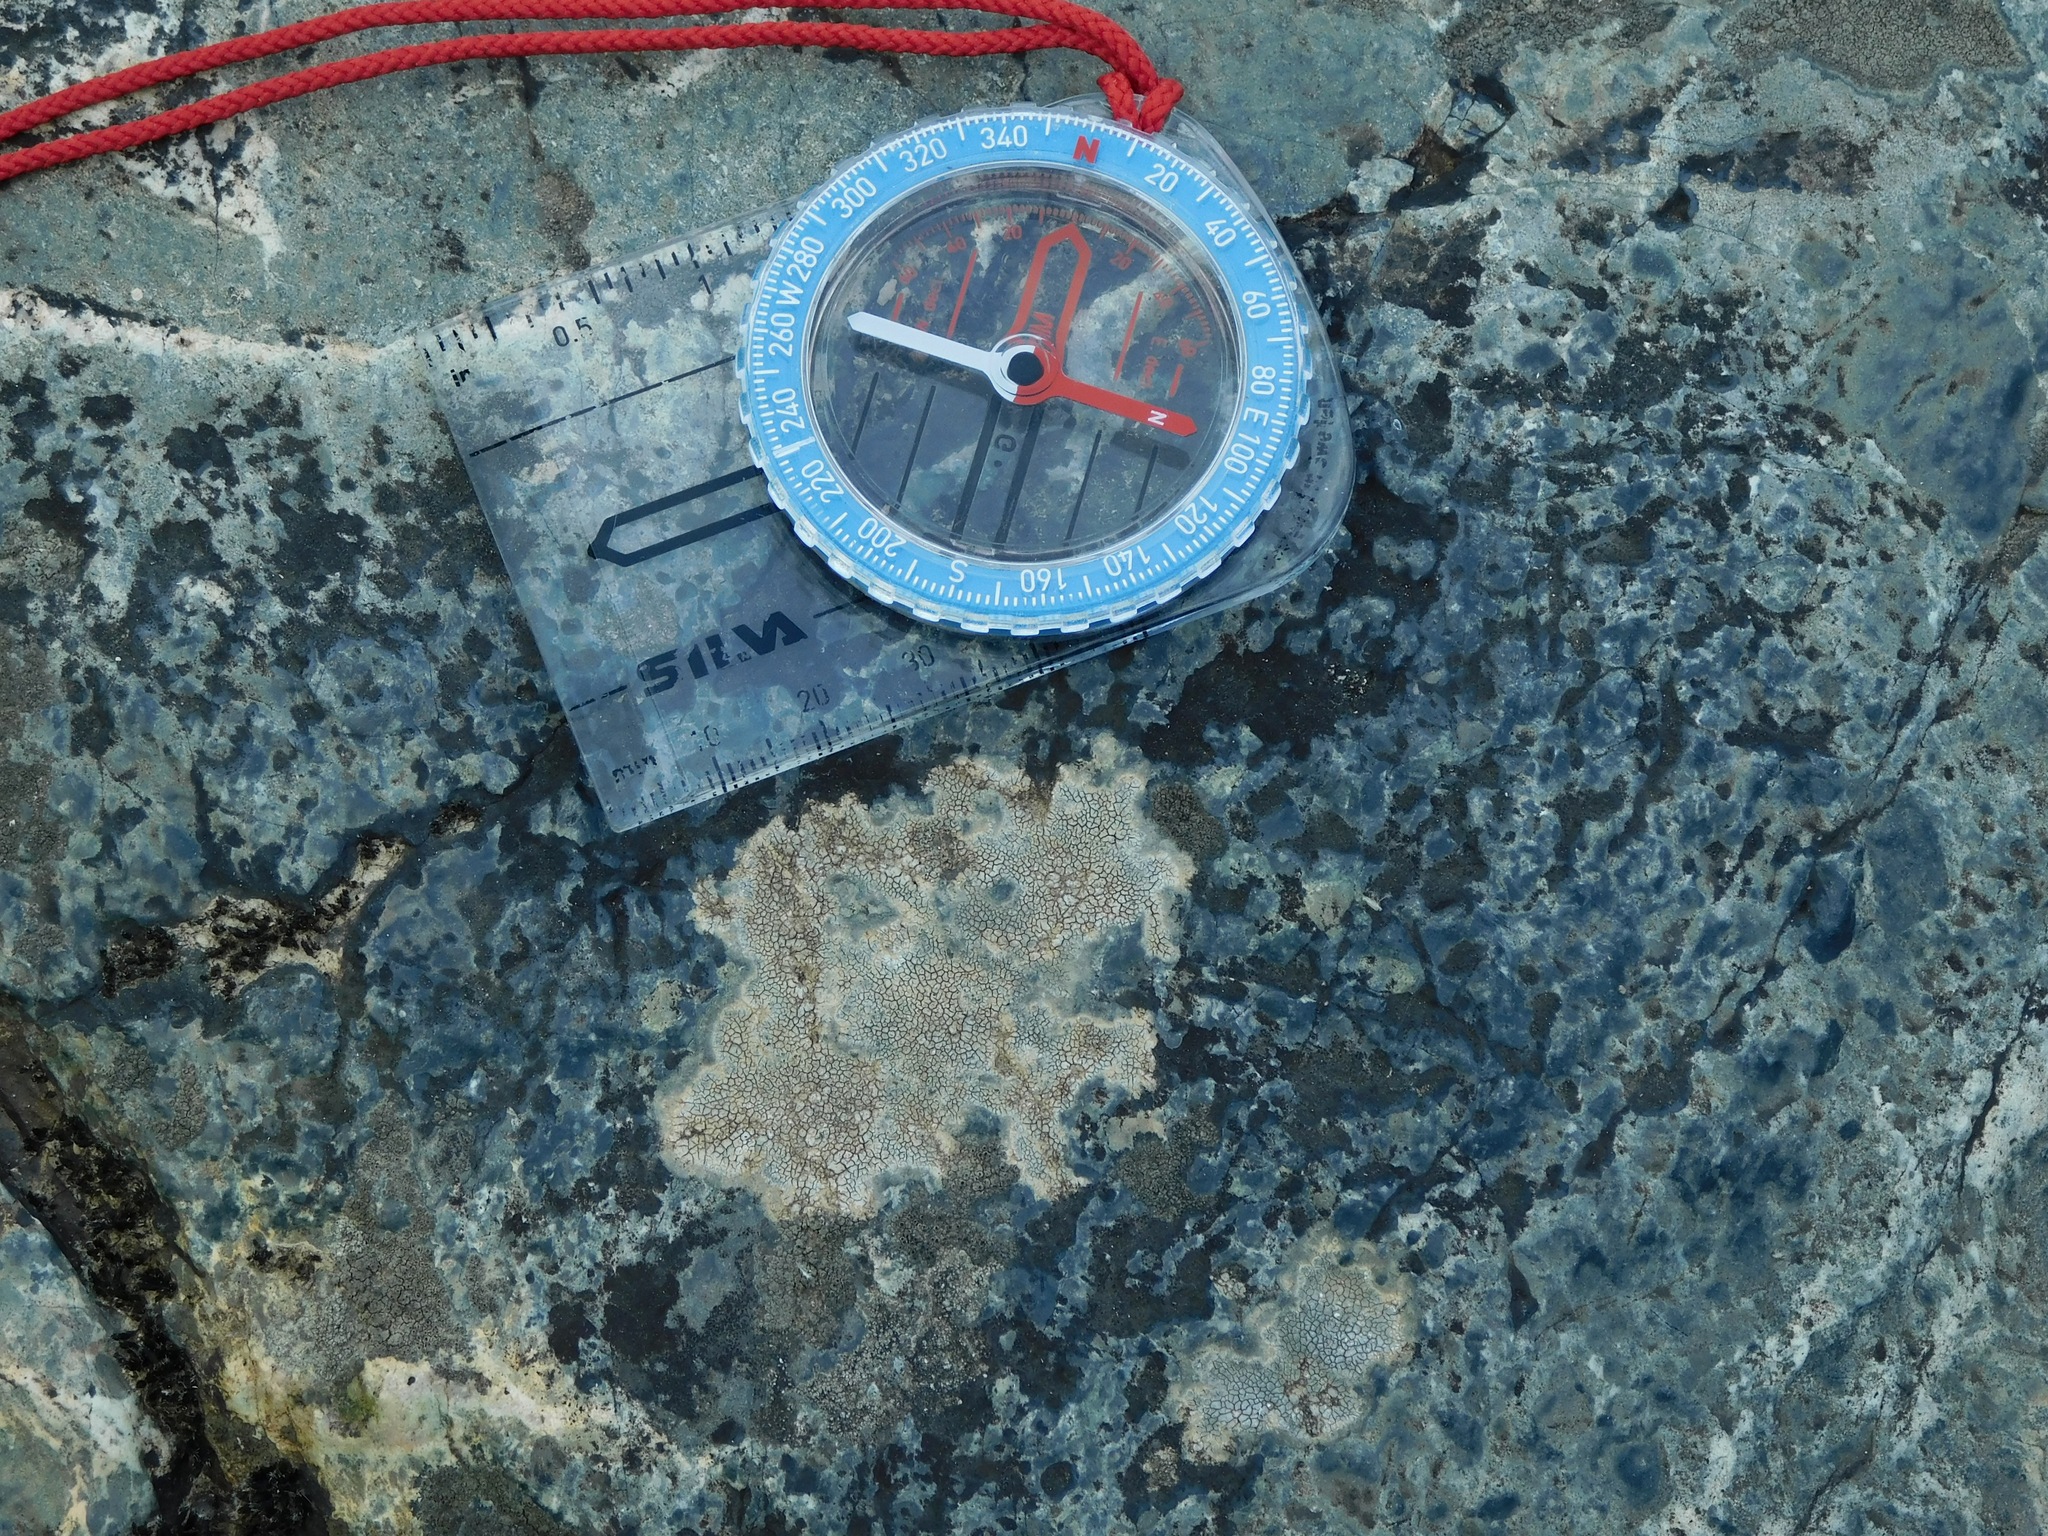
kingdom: Fungi
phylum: Ascomycota
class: Eurotiomycetes
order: Verrucariales
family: Adelococcaceae
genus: Sagediopsis
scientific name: Sagediopsis aquatica
